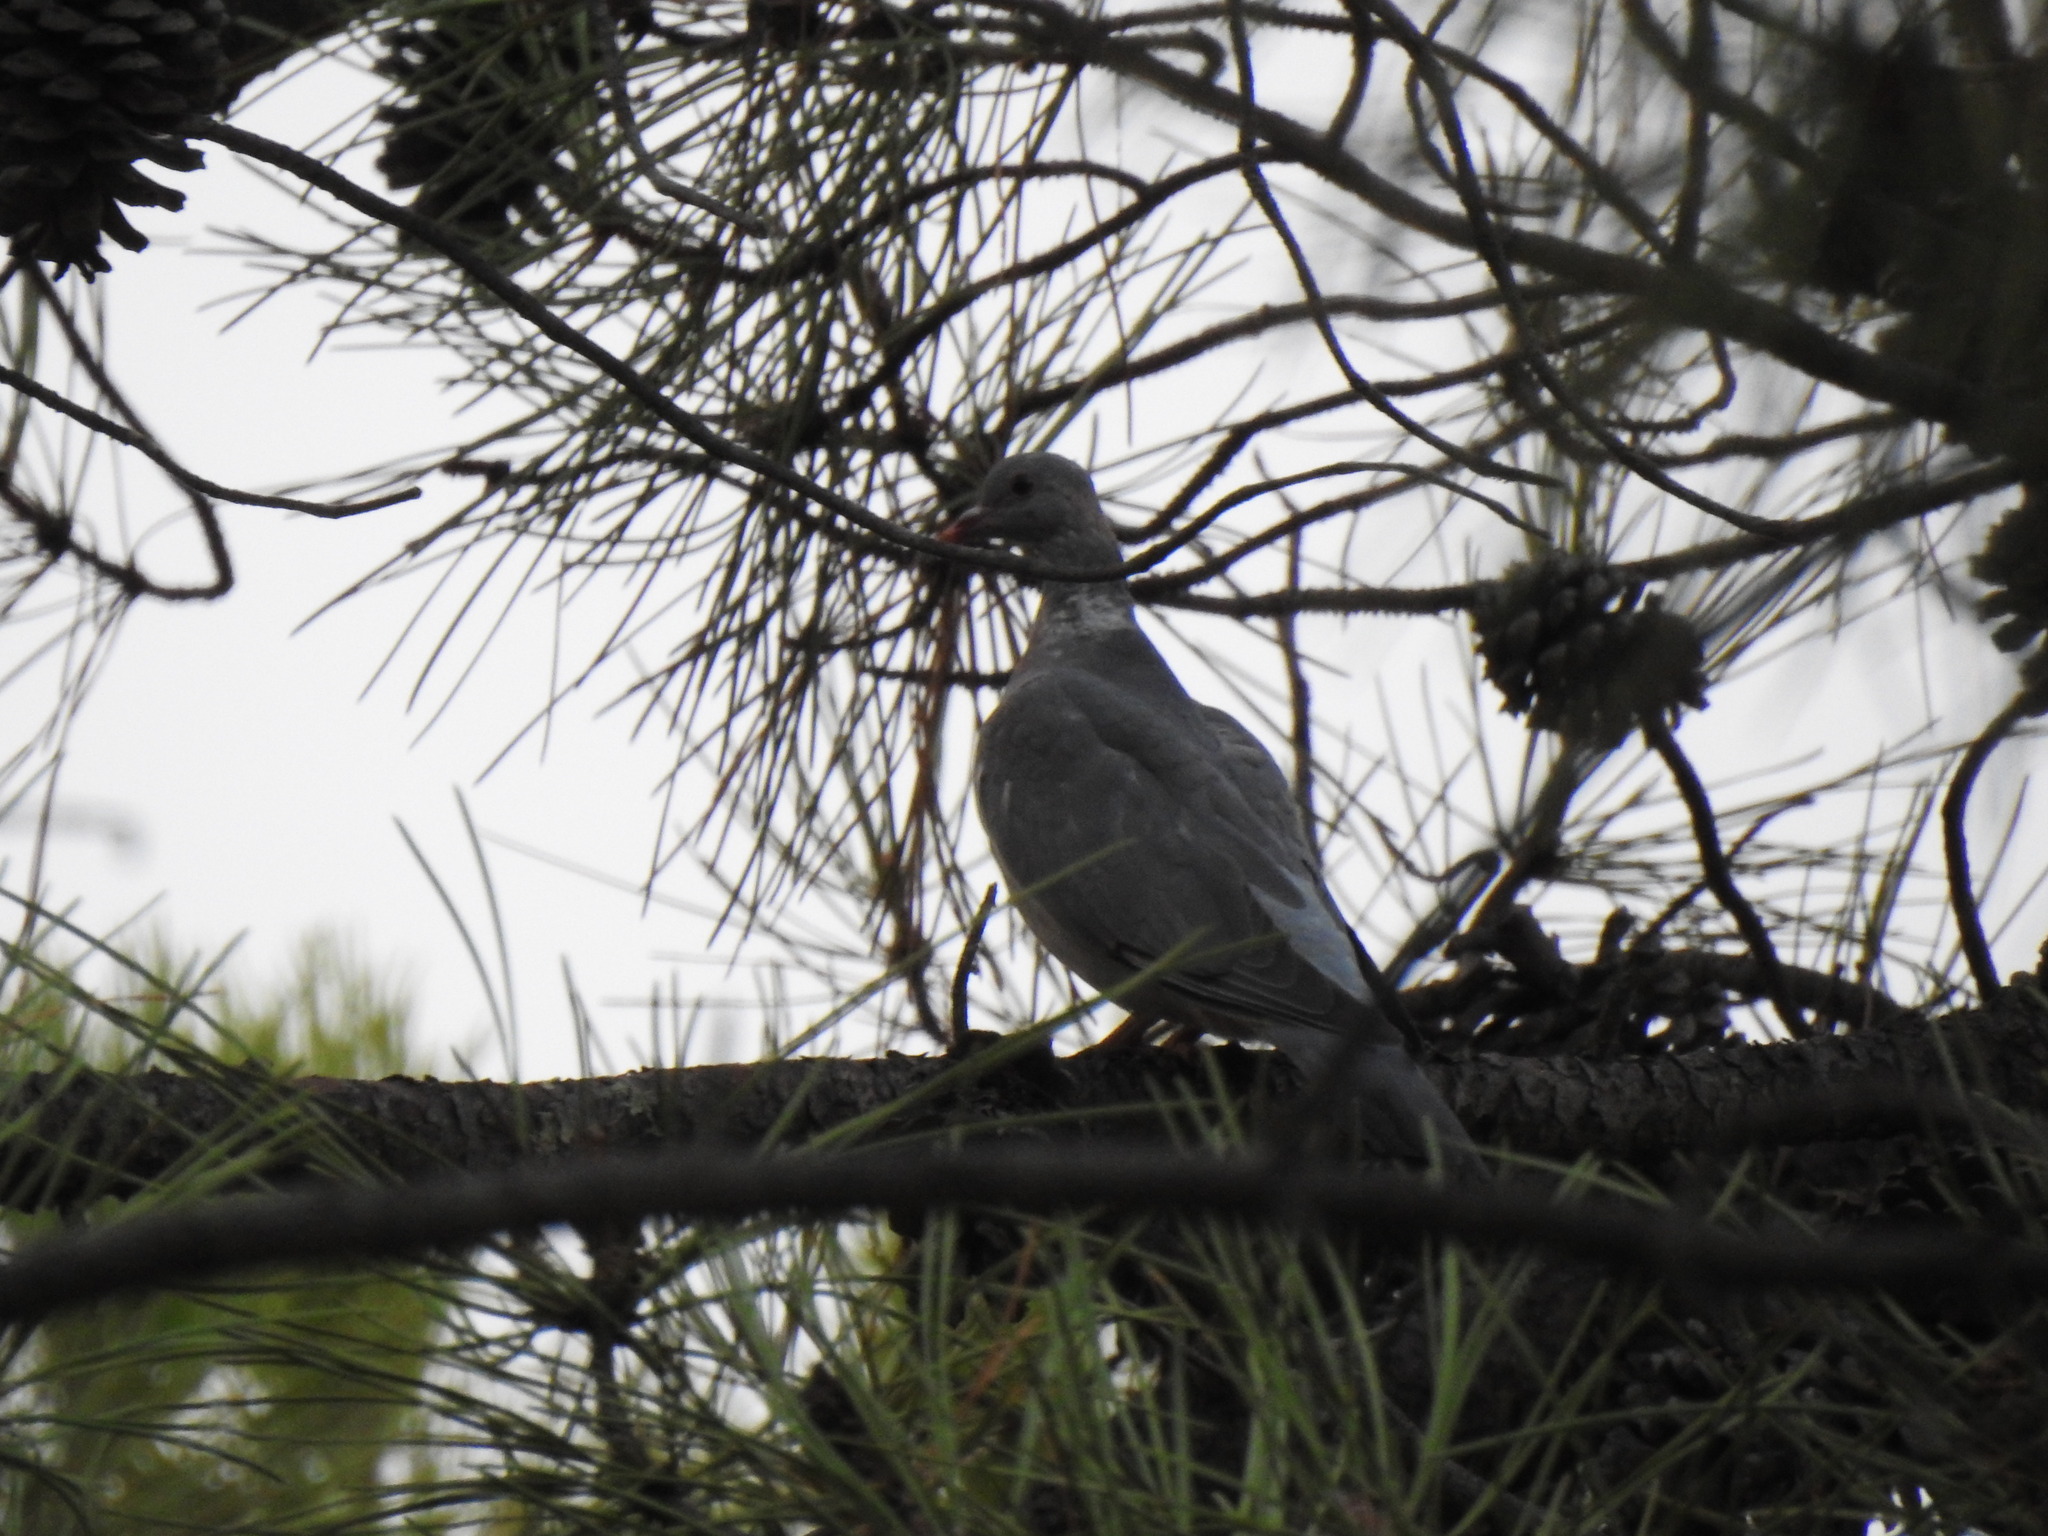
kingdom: Animalia
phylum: Chordata
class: Aves
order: Columbiformes
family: Columbidae
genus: Columba
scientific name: Columba palumbus
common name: Common wood pigeon
